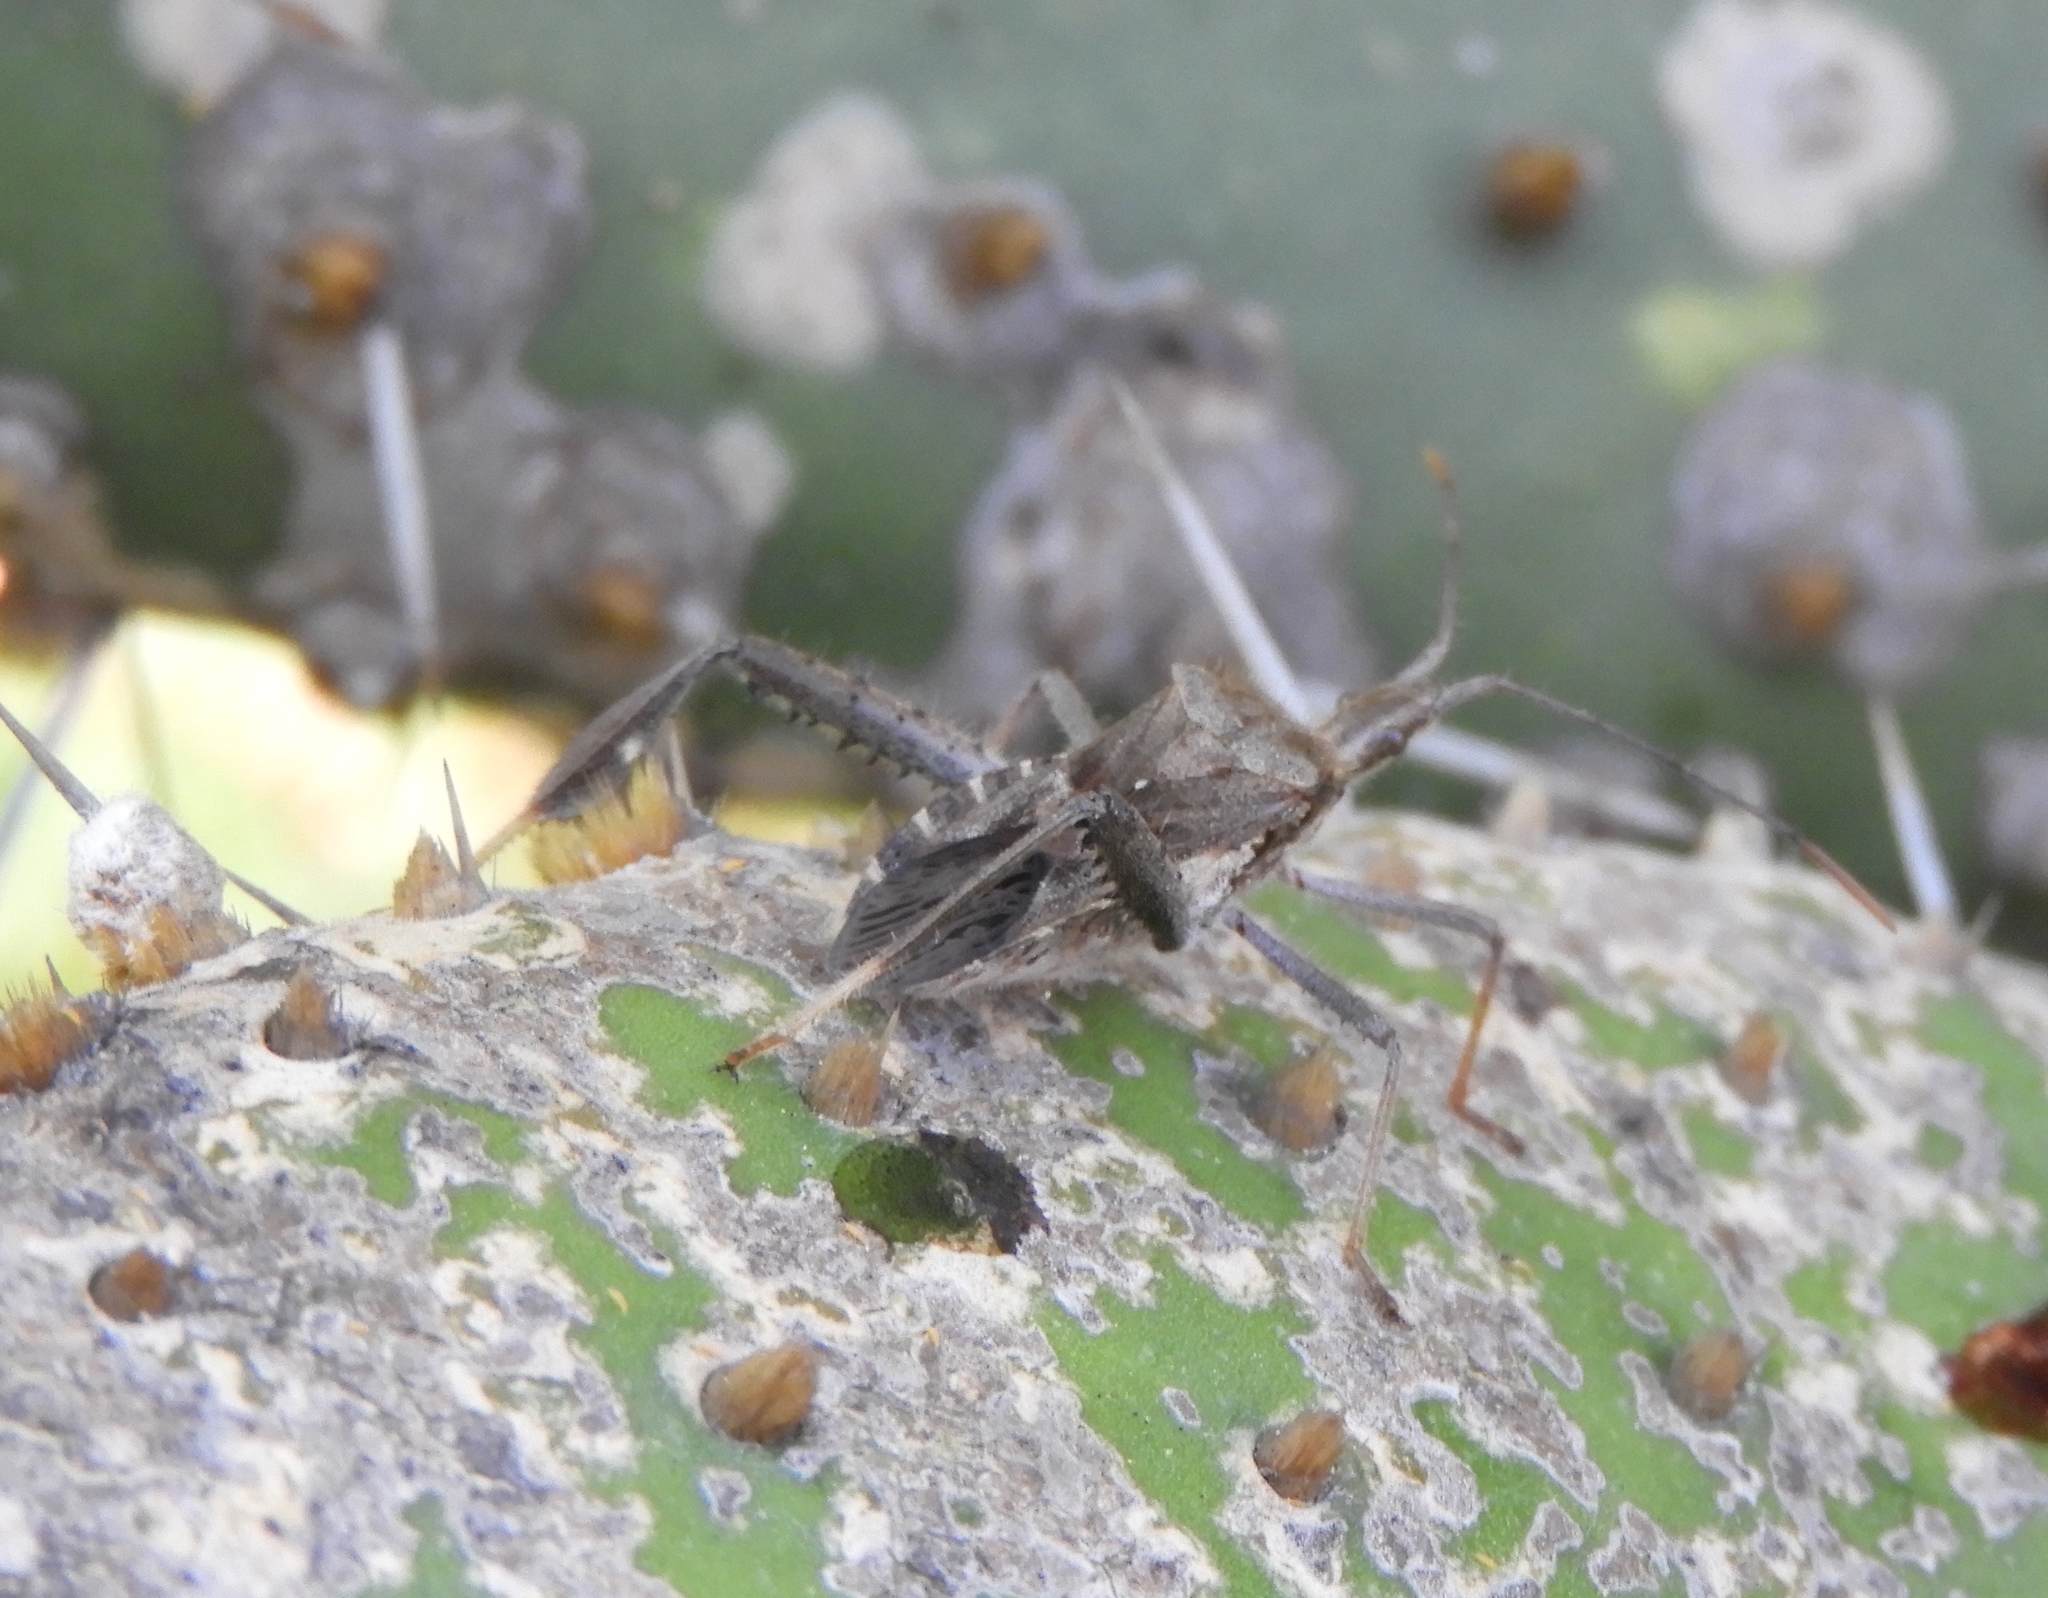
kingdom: Animalia
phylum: Arthropoda
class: Insecta
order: Hemiptera
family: Coreidae
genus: Narnia
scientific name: Narnia
